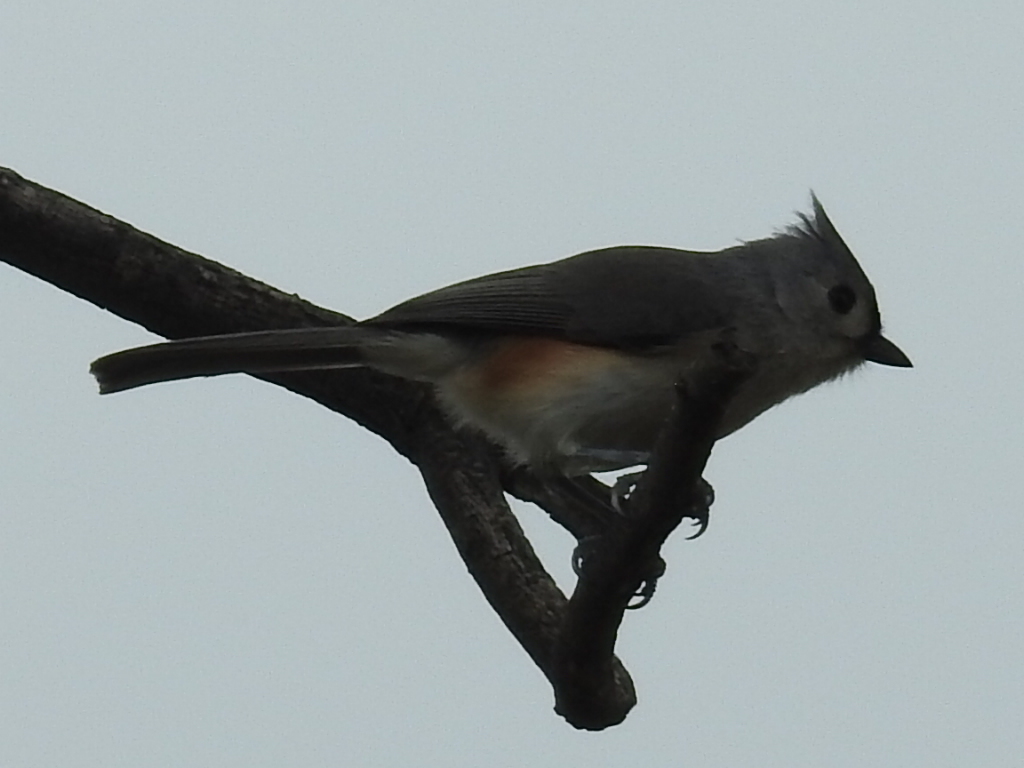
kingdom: Animalia
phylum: Chordata
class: Aves
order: Passeriformes
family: Paridae
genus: Baeolophus
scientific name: Baeolophus bicolor
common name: Tufted titmouse
